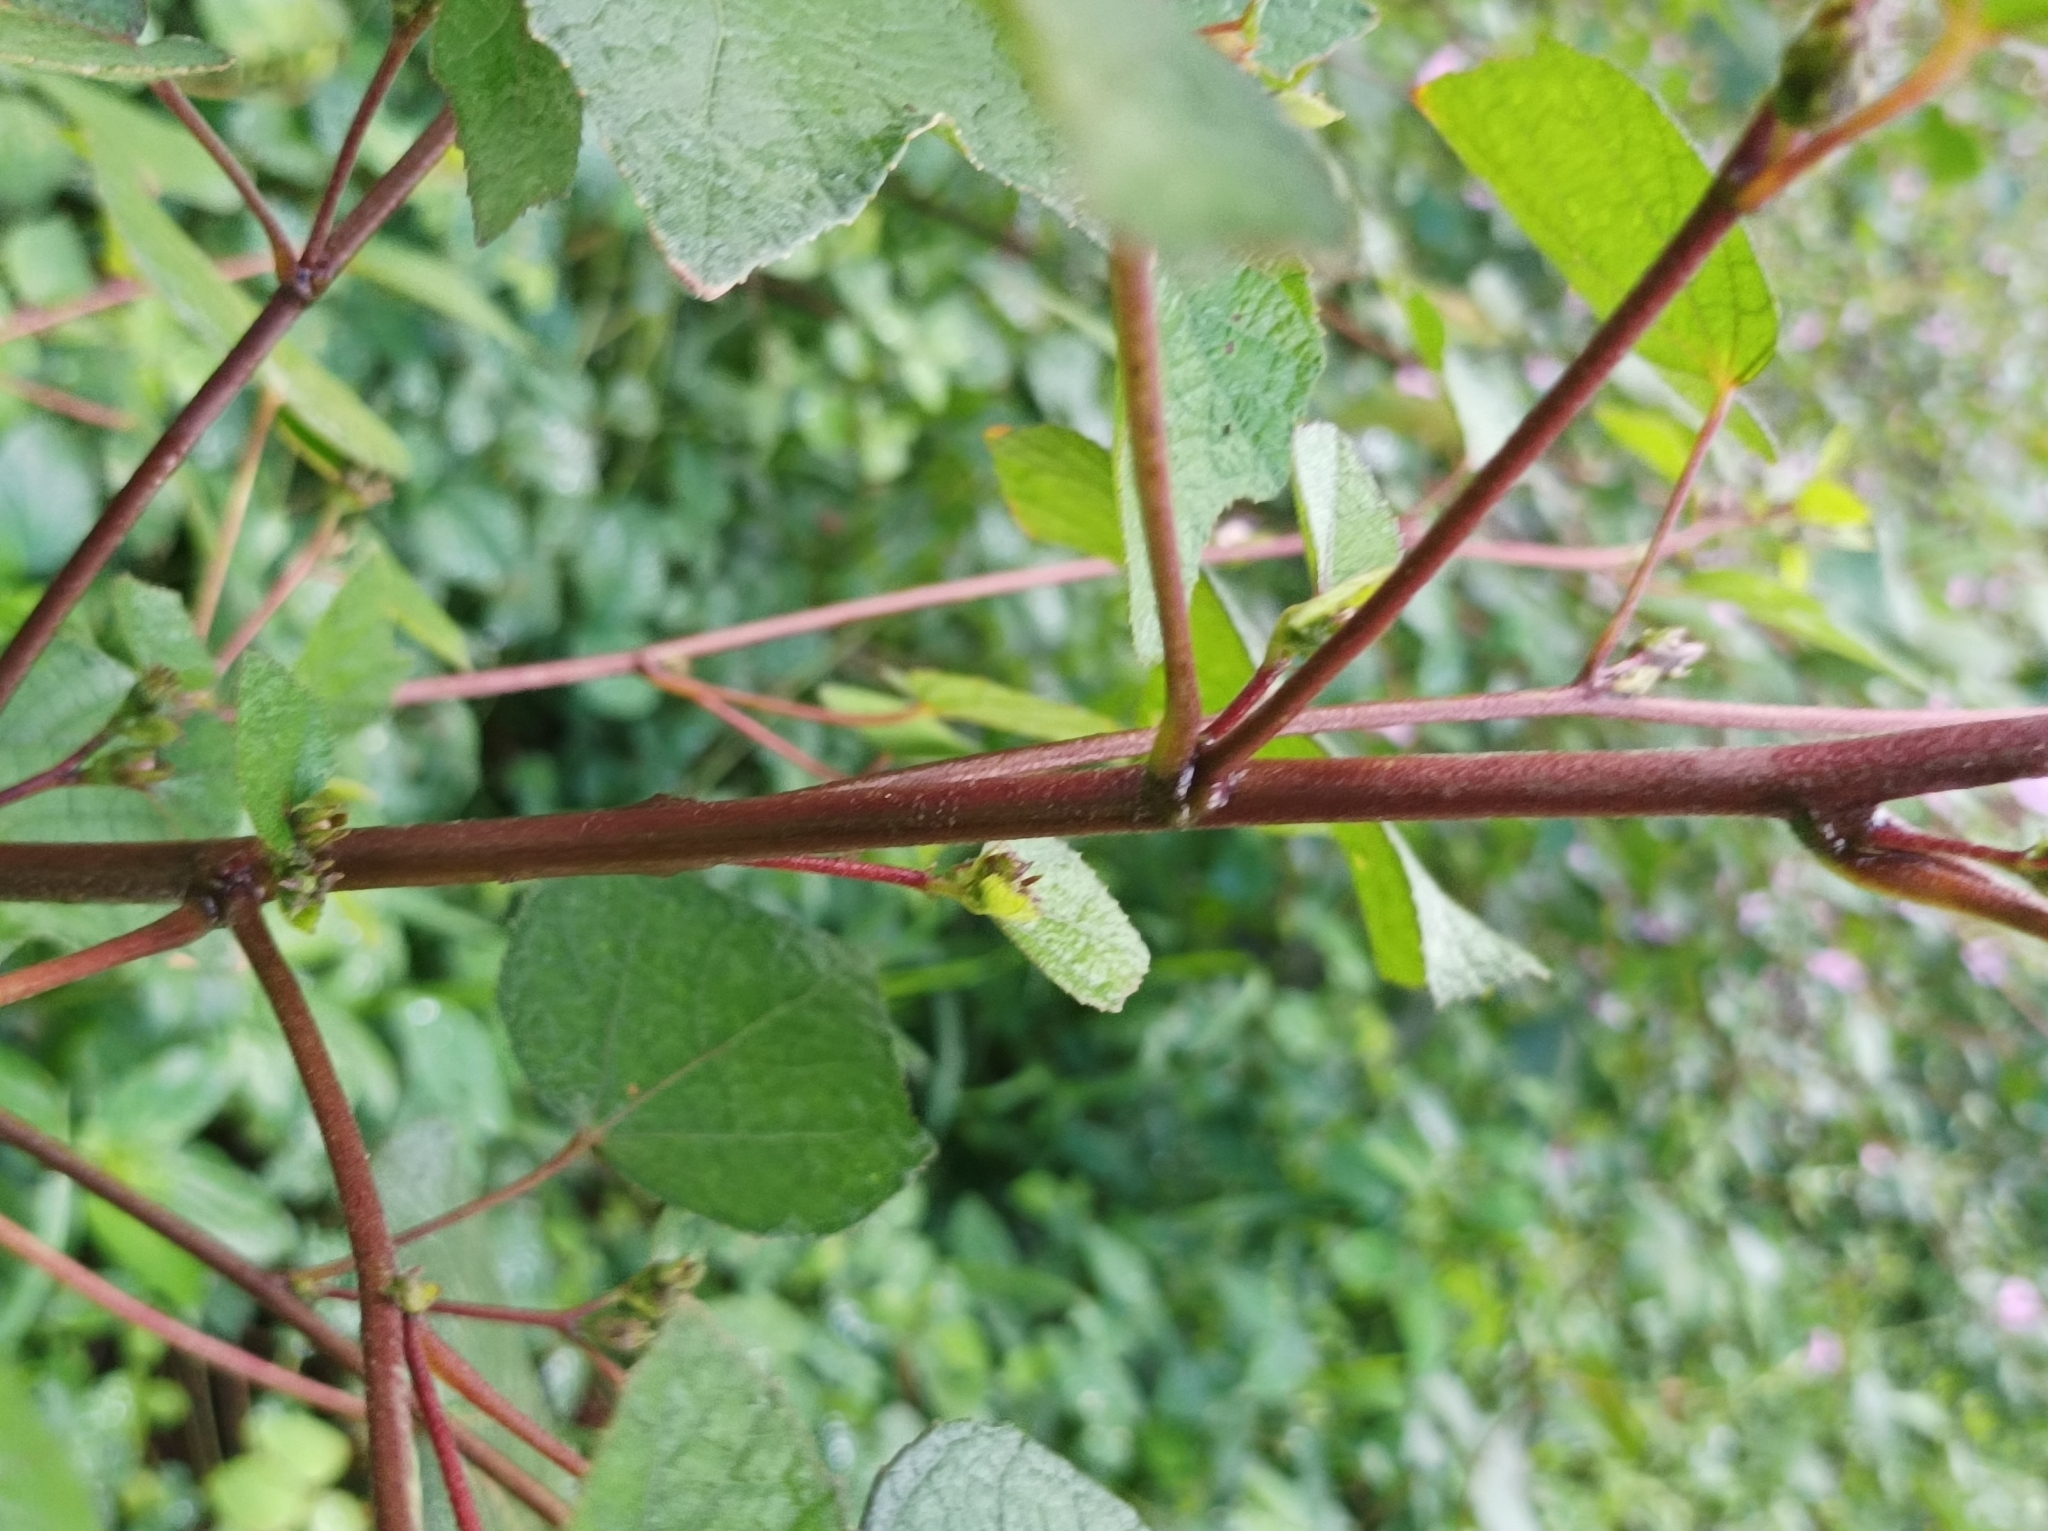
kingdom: Plantae
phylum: Tracheophyta
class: Magnoliopsida
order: Malvales
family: Malvaceae
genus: Urena
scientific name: Urena lobata
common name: Caesarweed
